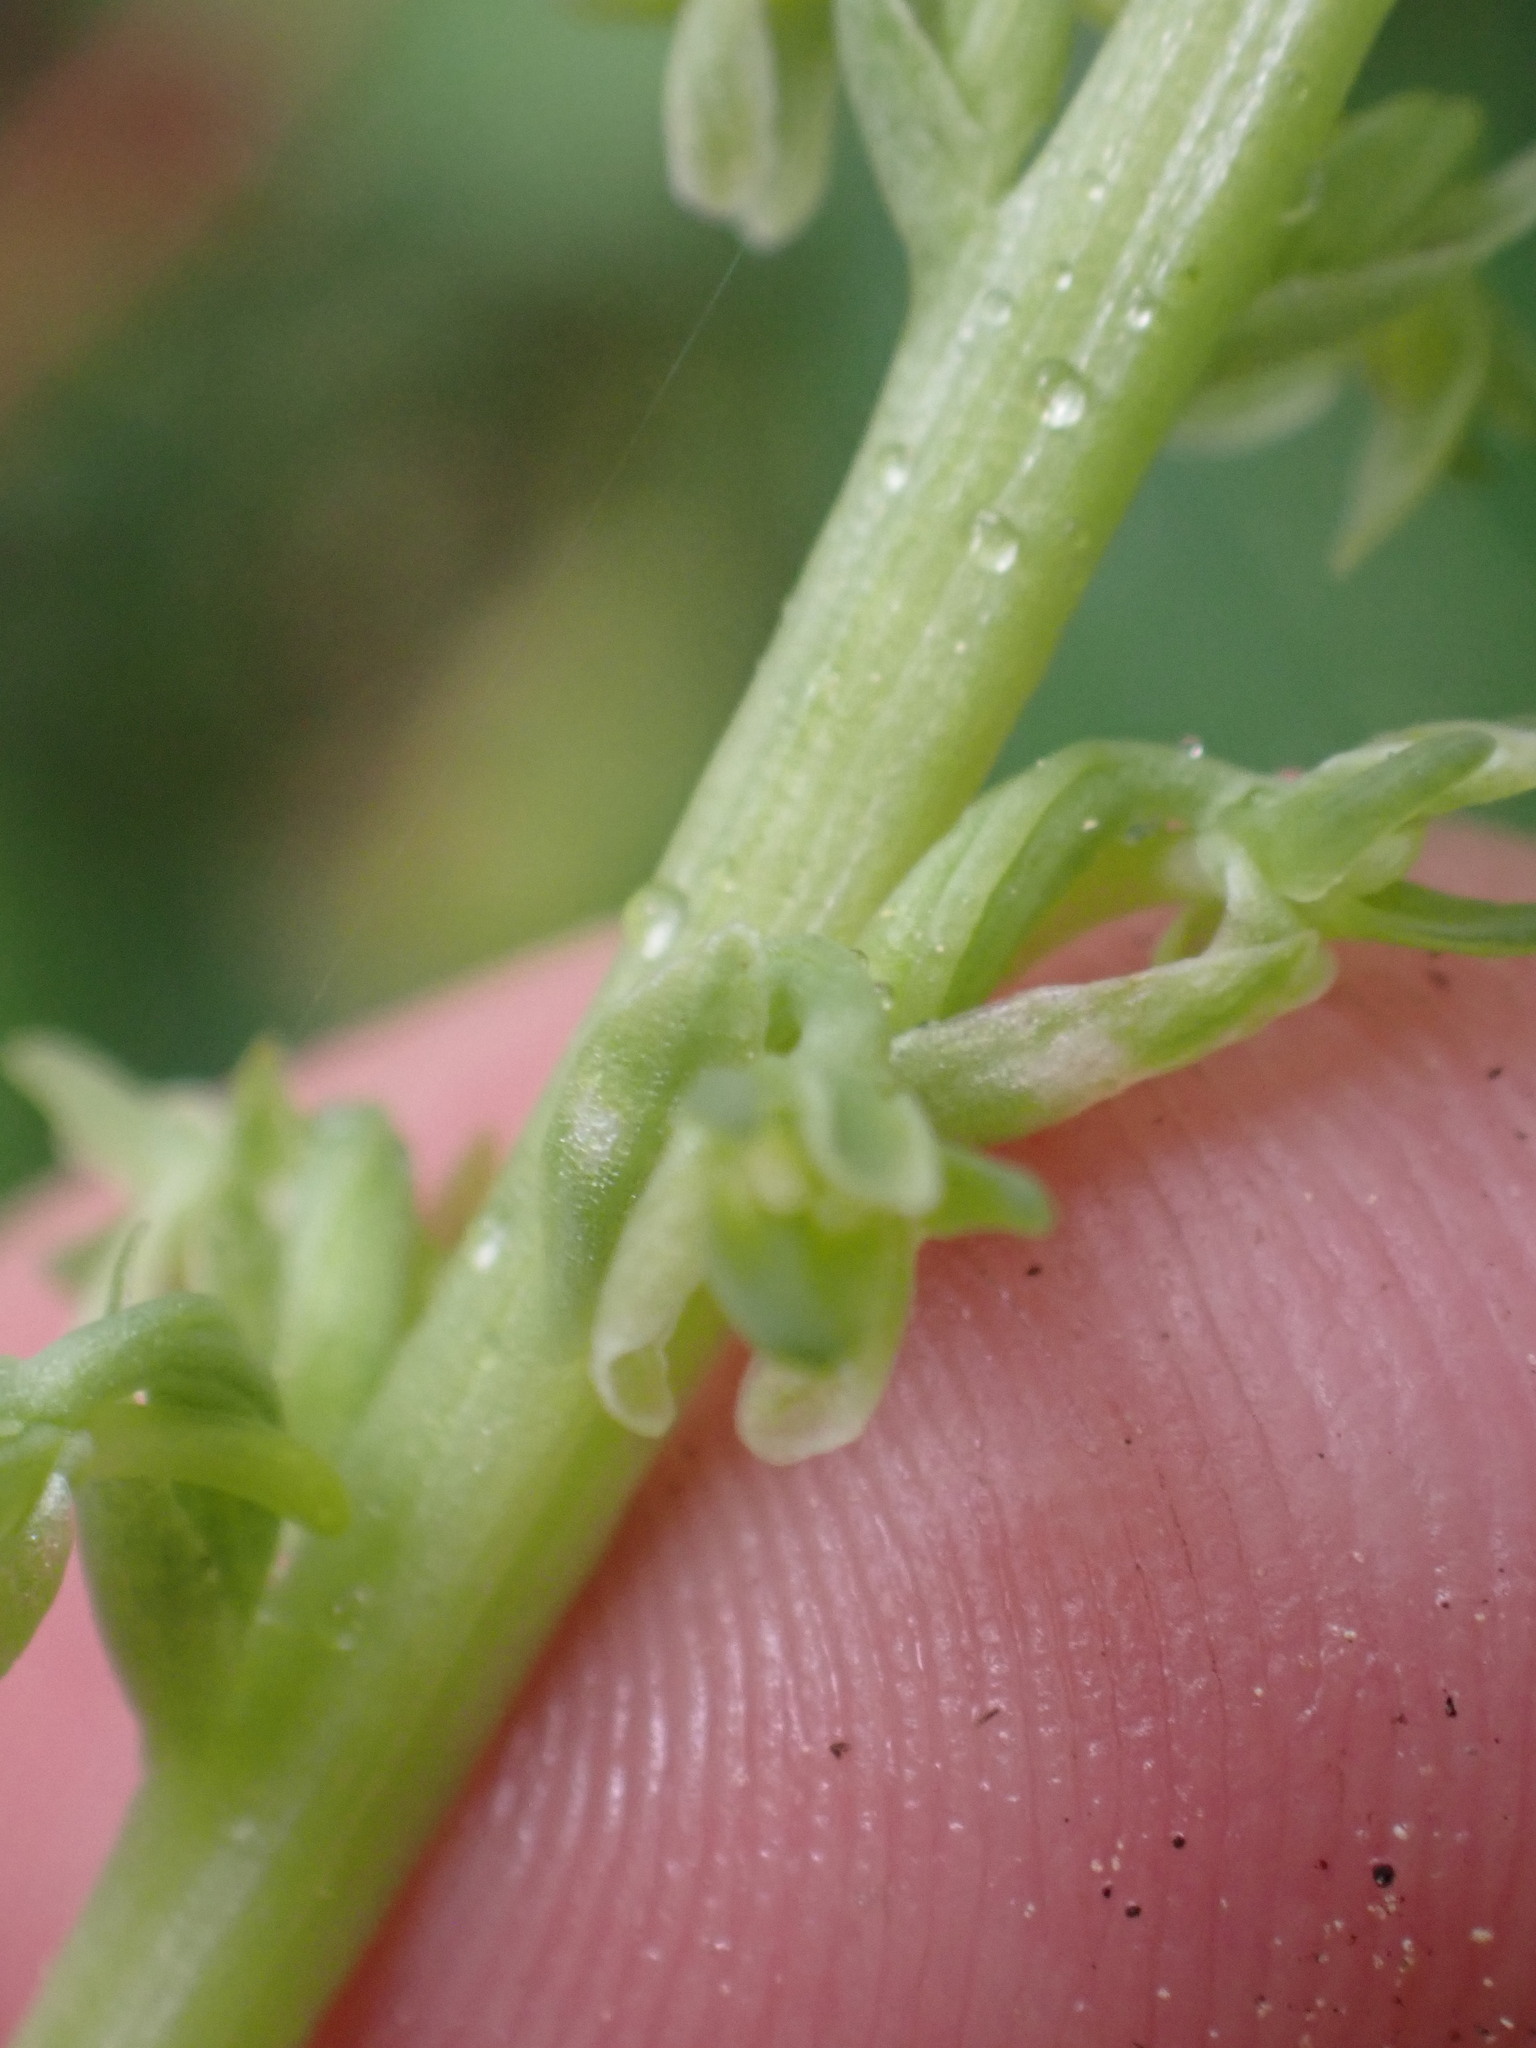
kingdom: Plantae
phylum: Tracheophyta
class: Liliopsida
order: Asparagales
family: Orchidaceae
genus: Platanthera
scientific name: Platanthera unalascensis
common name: Alaska bog orchid
